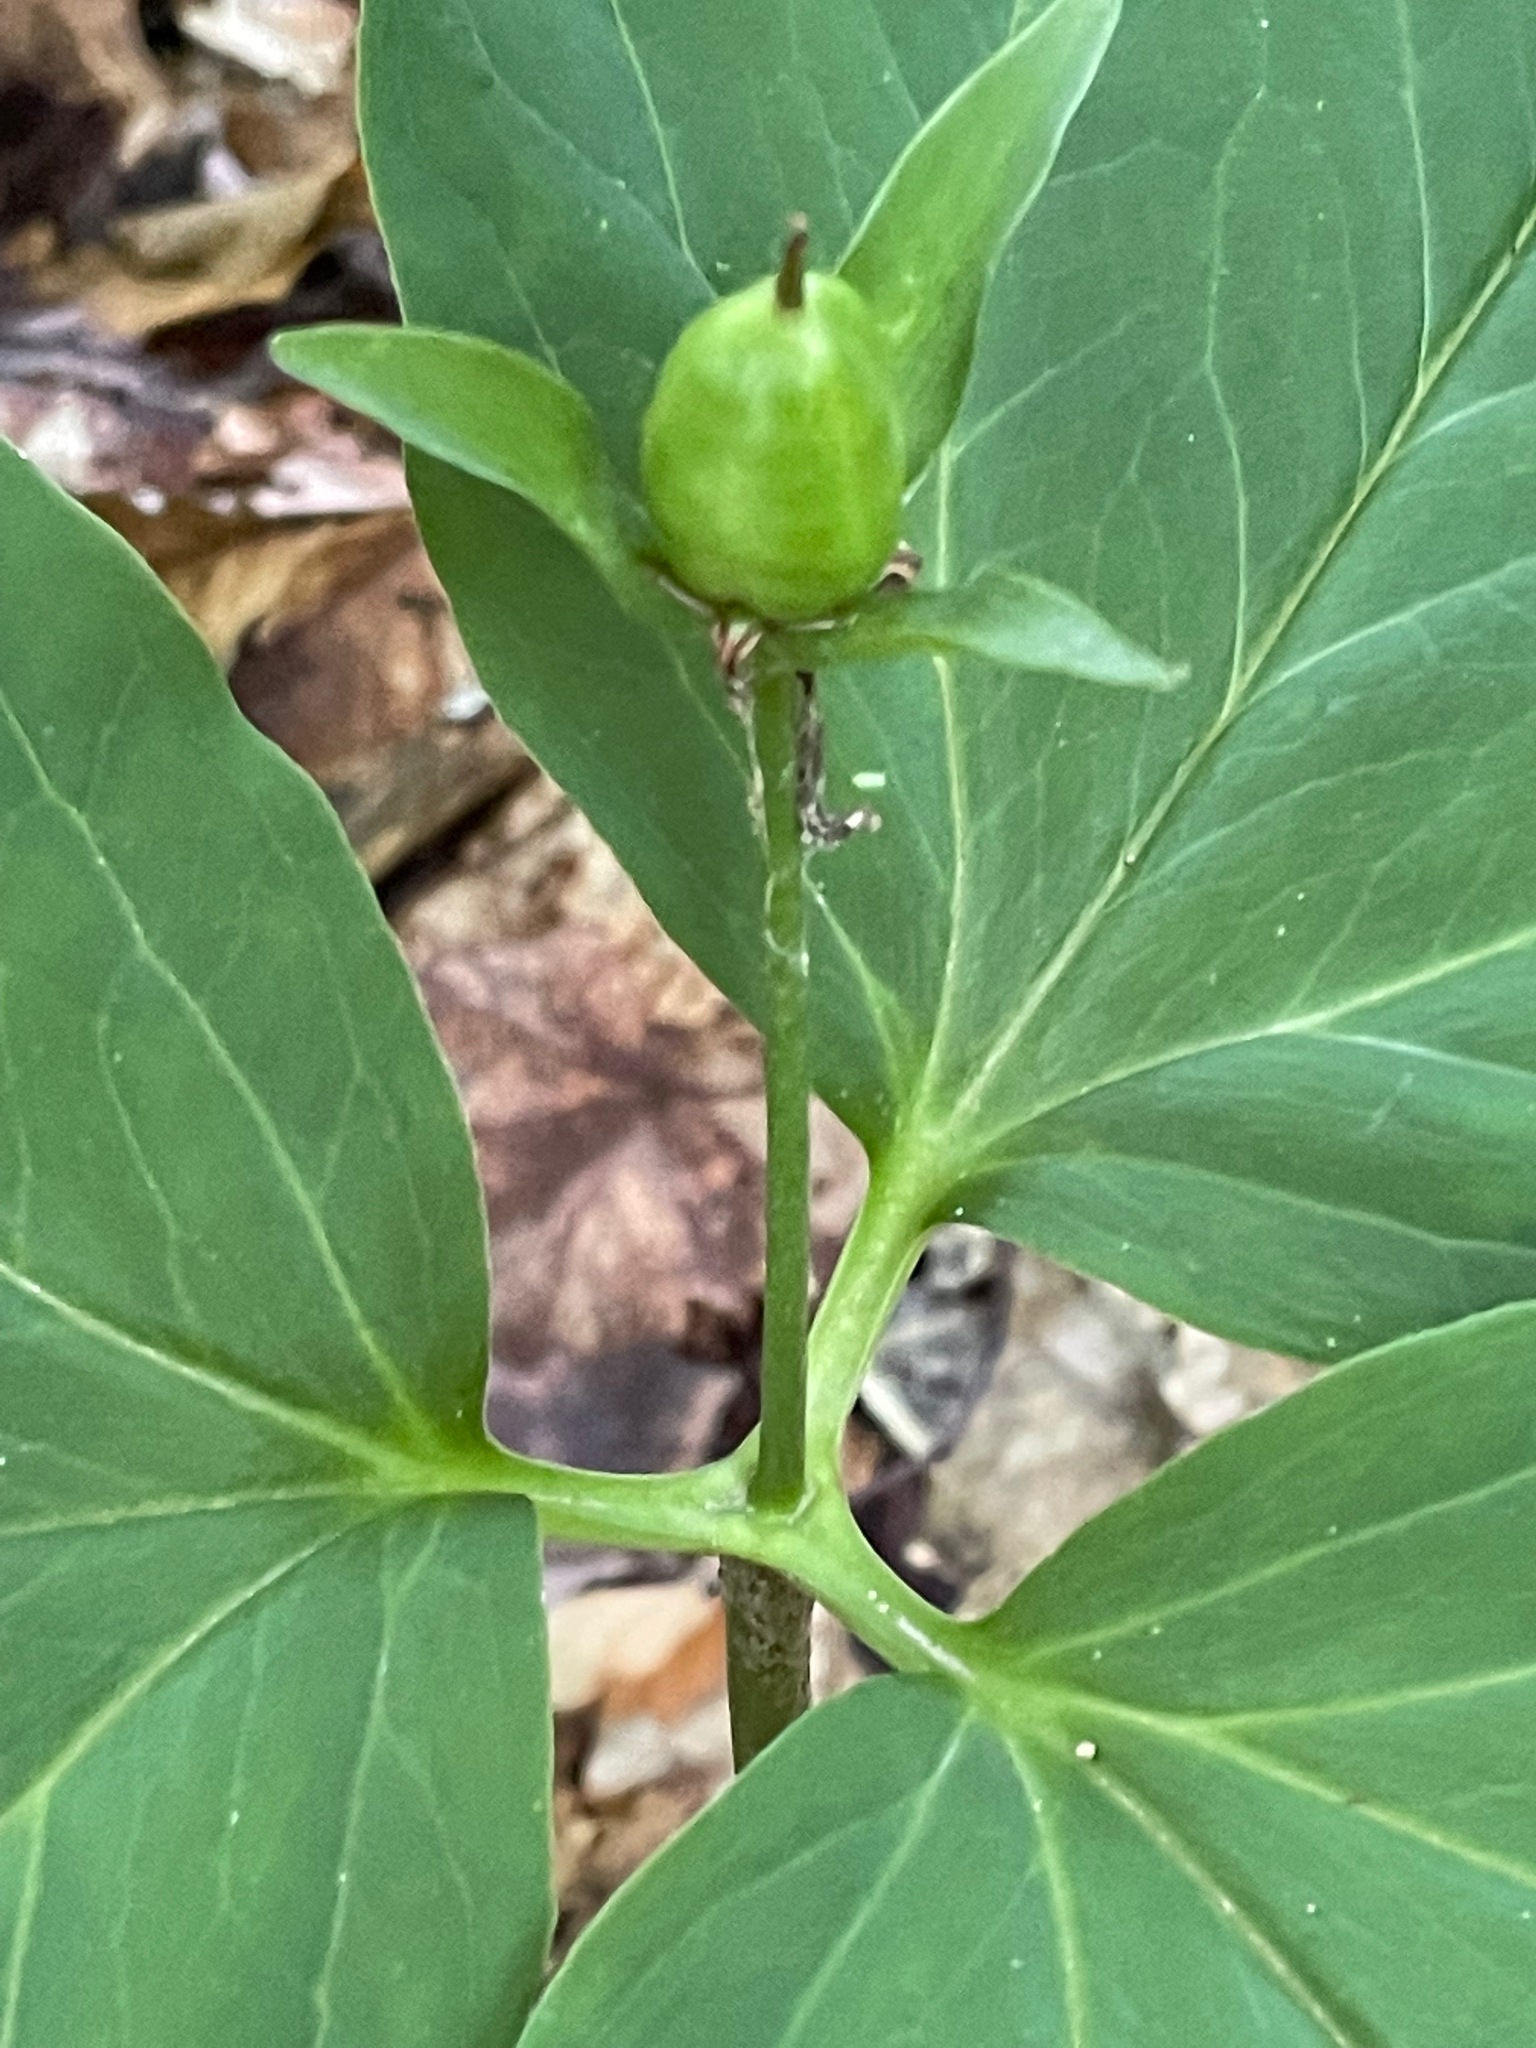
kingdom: Plantae
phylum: Tracheophyta
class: Liliopsida
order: Liliales
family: Melanthiaceae
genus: Trillium
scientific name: Trillium undulatum
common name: Paint trillium
